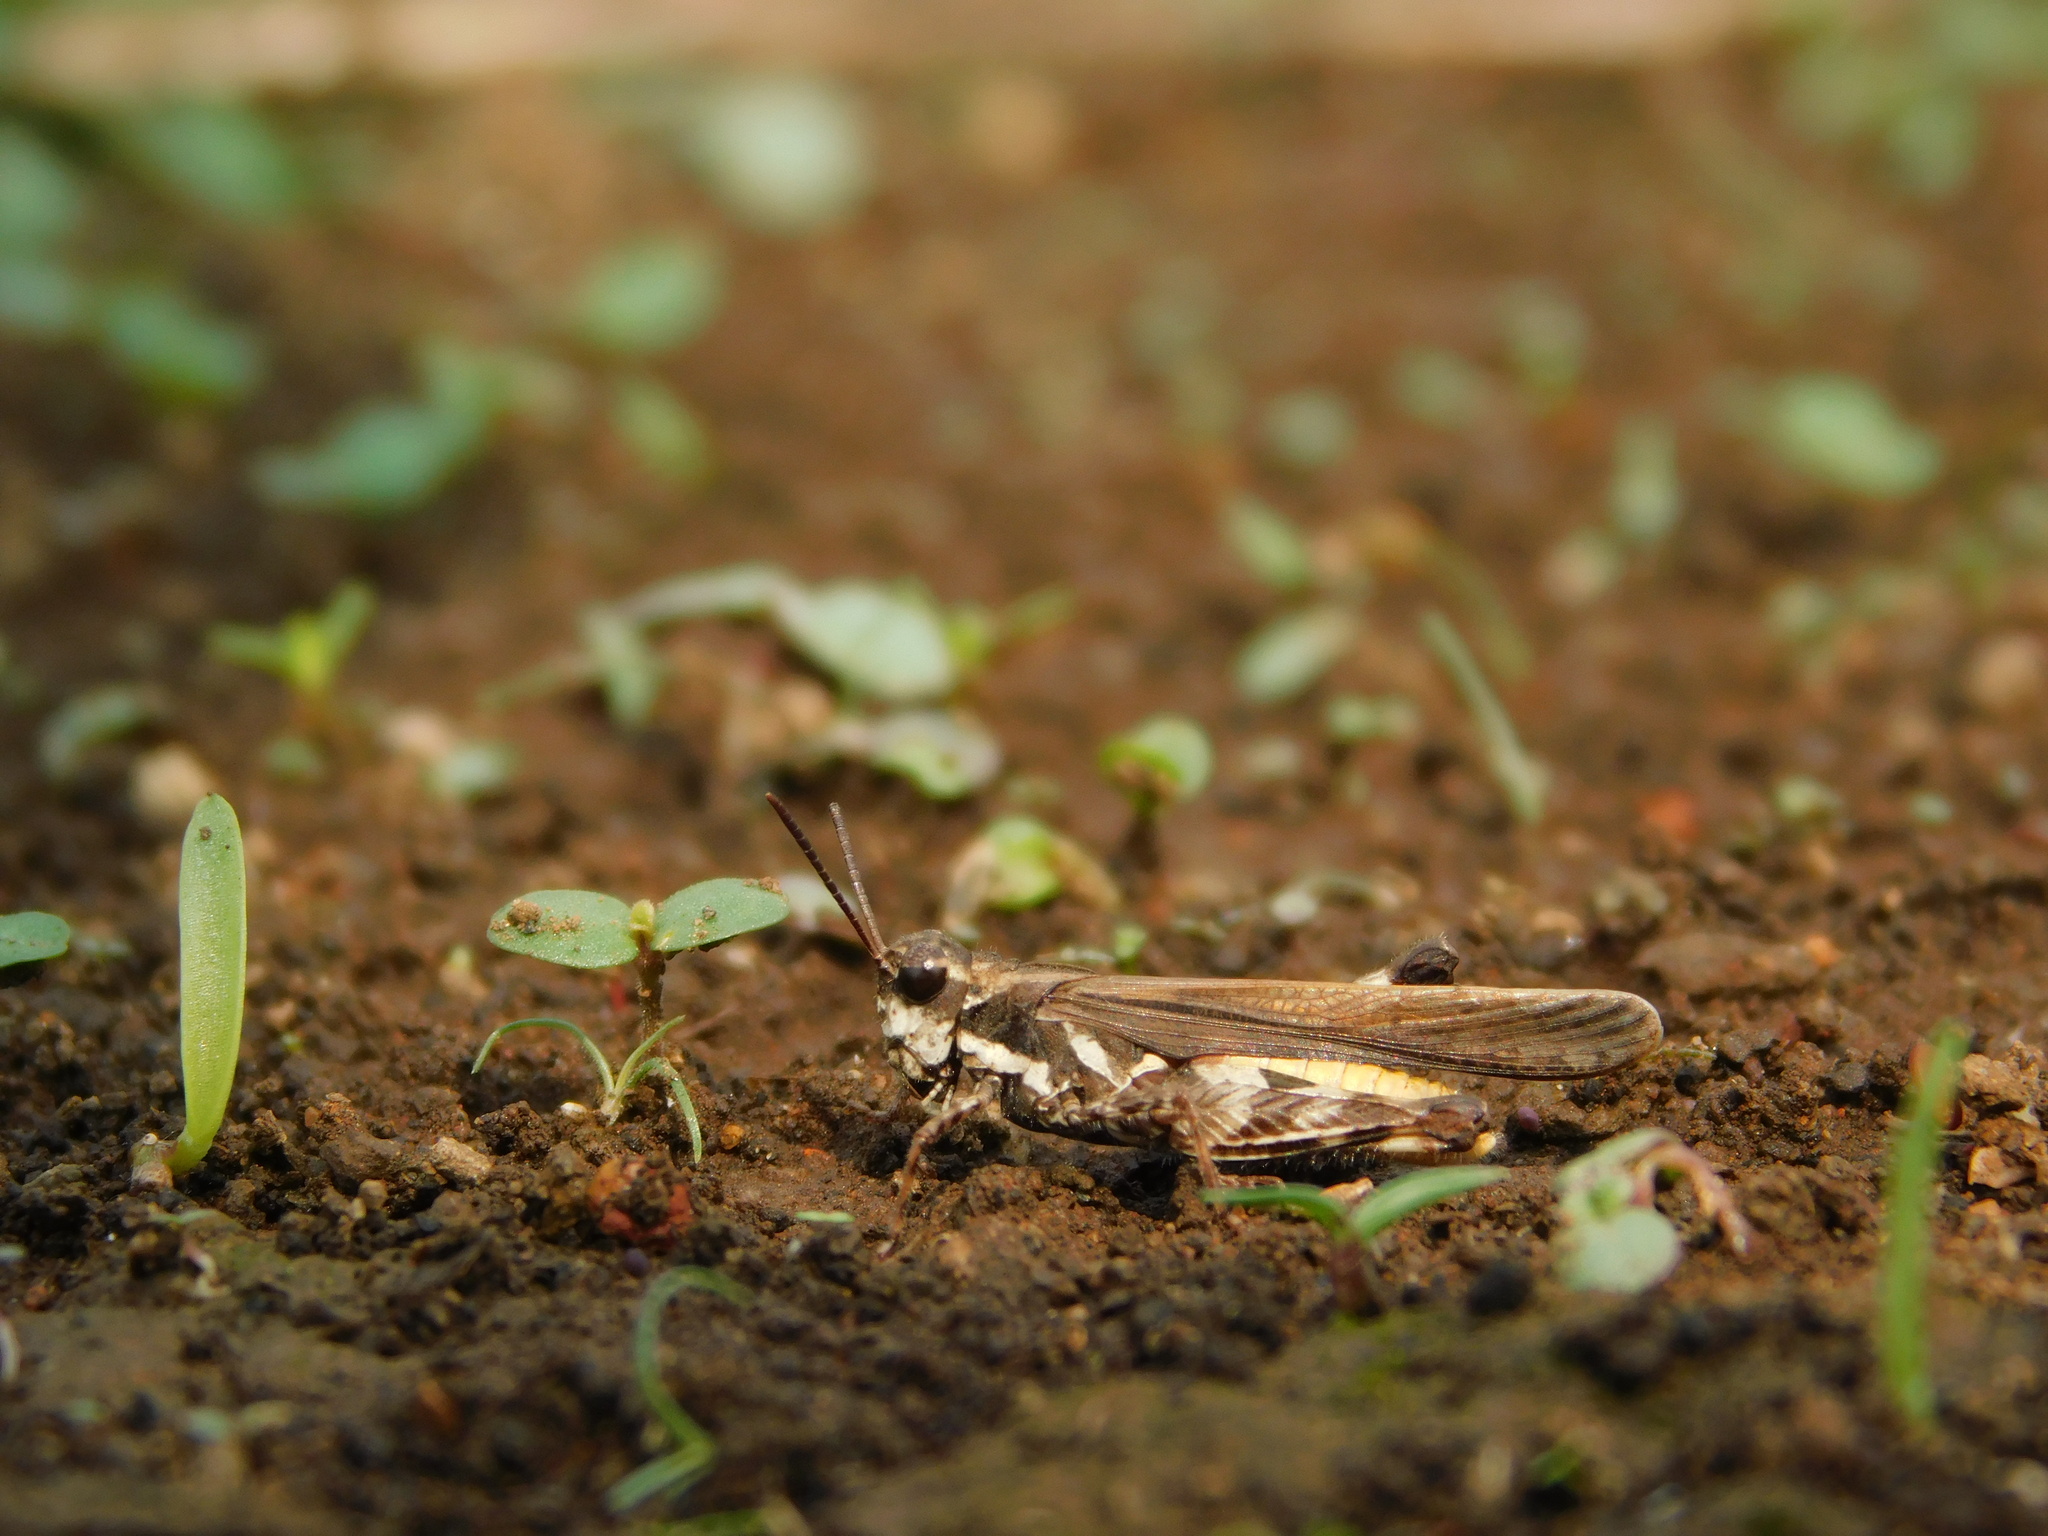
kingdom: Animalia
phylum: Arthropoda
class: Insecta
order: Orthoptera
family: Acrididae
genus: Trilophidia
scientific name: Trilophidia annulata
